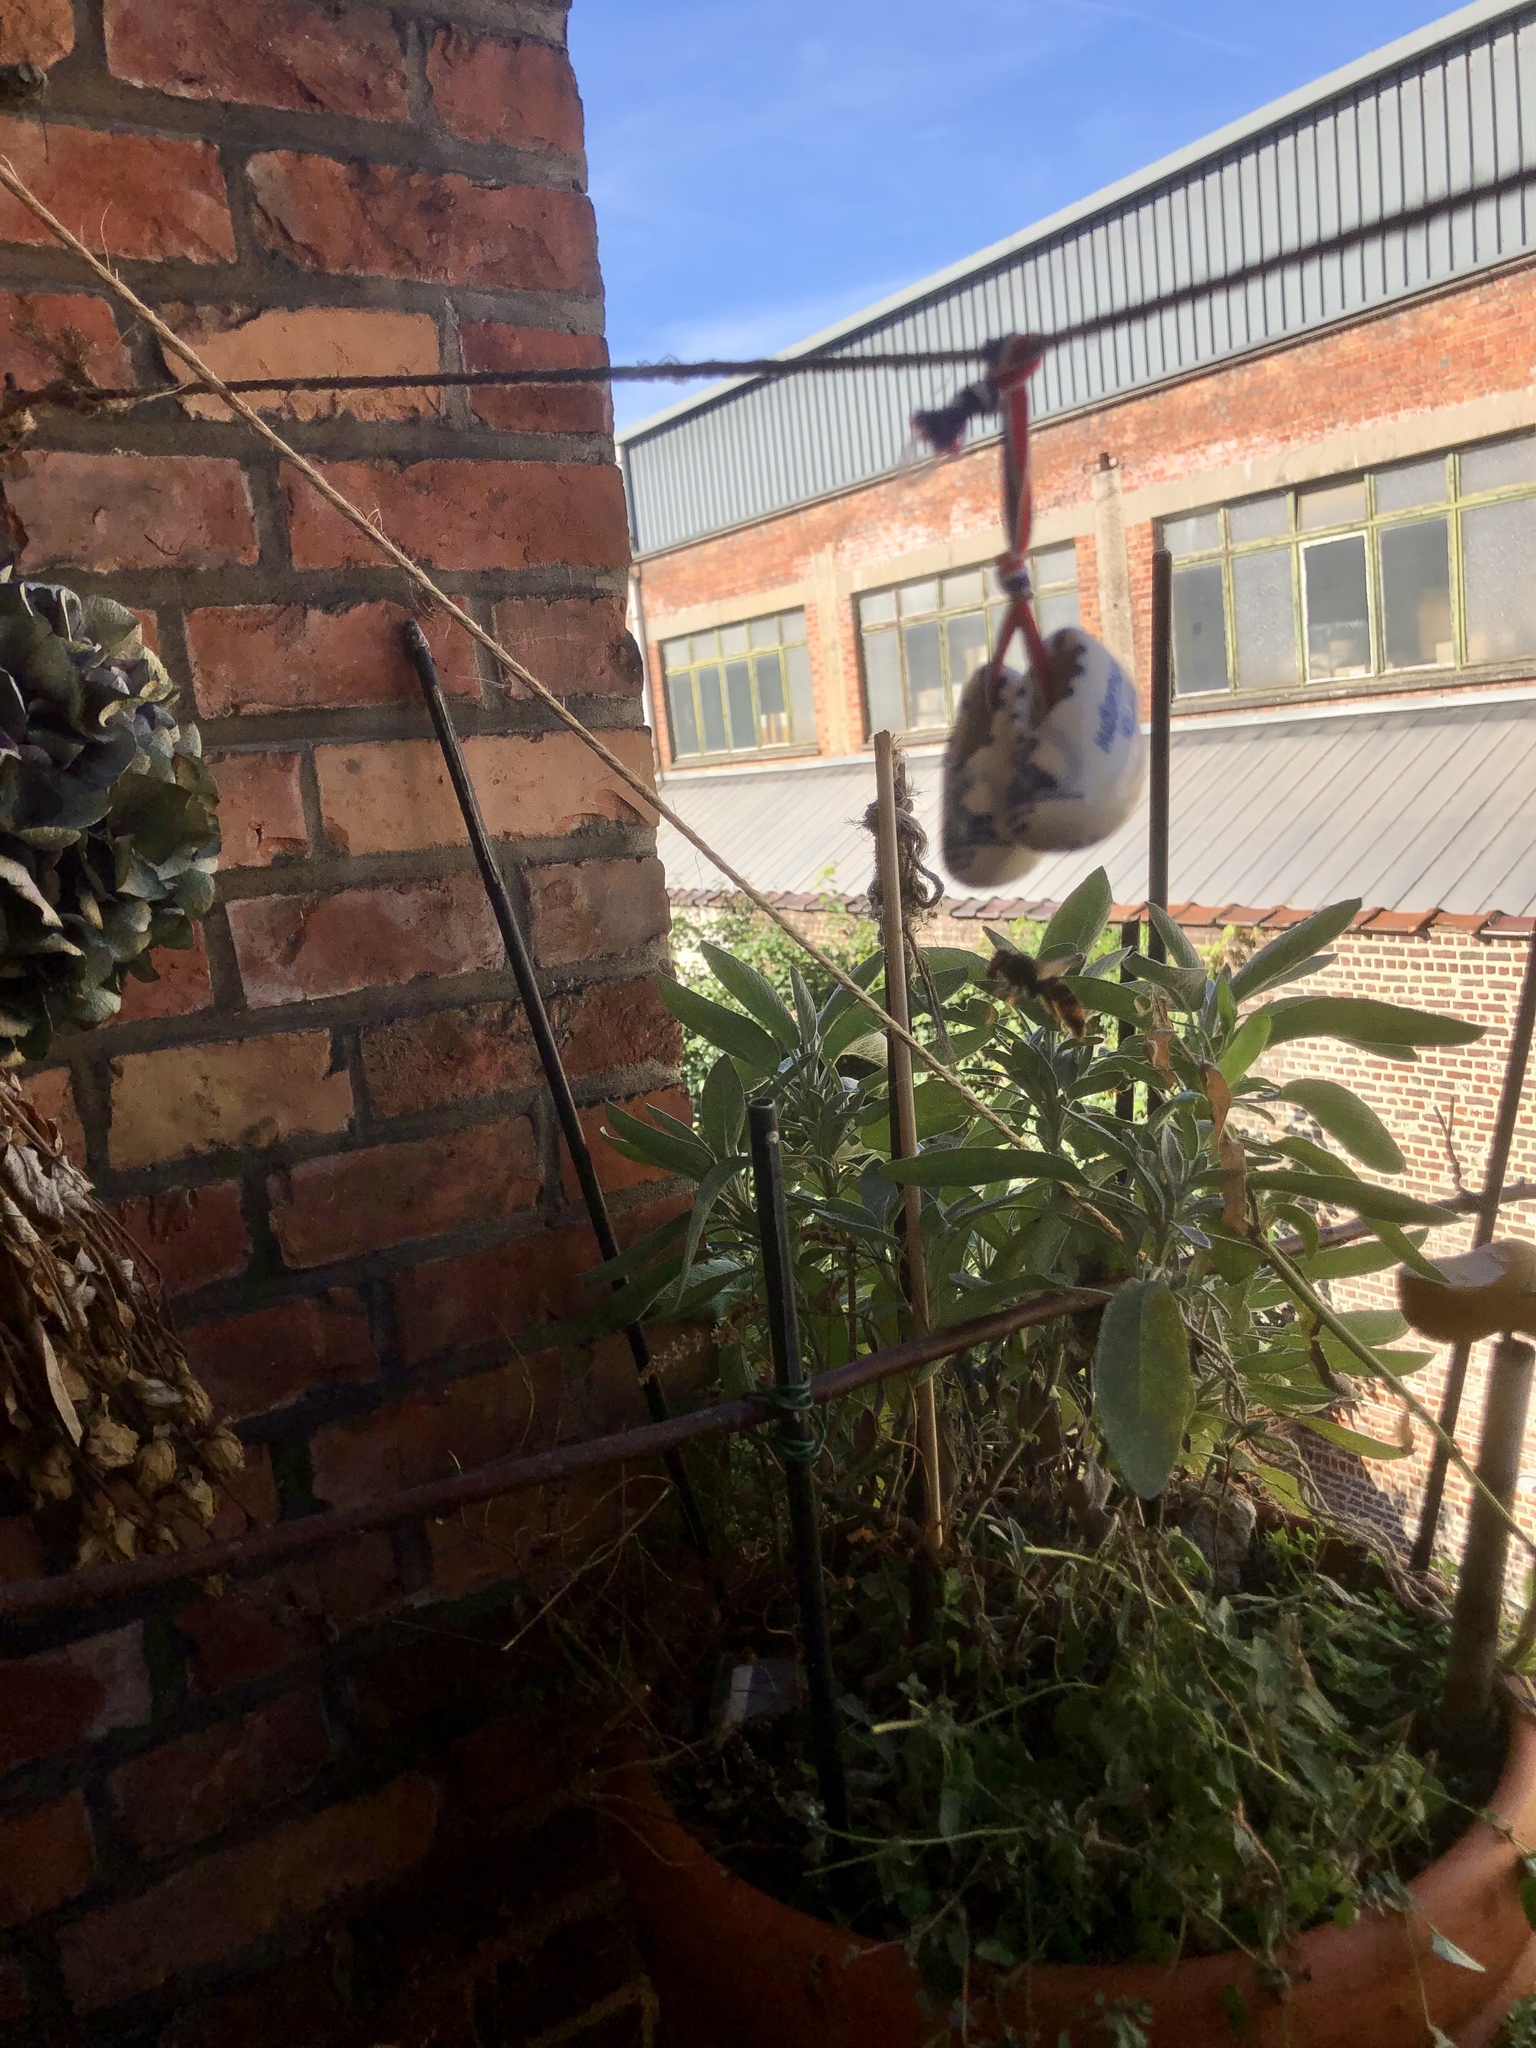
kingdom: Animalia
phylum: Arthropoda
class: Insecta
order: Hymenoptera
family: Vespidae
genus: Vespa
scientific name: Vespa velutina
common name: Asian hornet
